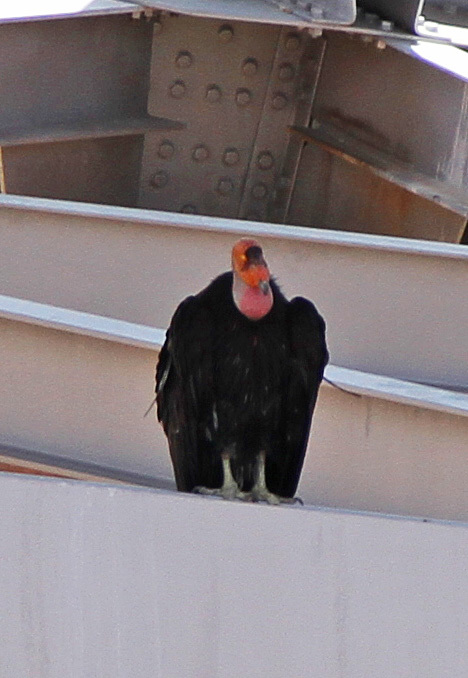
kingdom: Animalia
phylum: Chordata
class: Aves
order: Accipitriformes
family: Cathartidae
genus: Gymnogyps
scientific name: Gymnogyps californianus
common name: California condor
